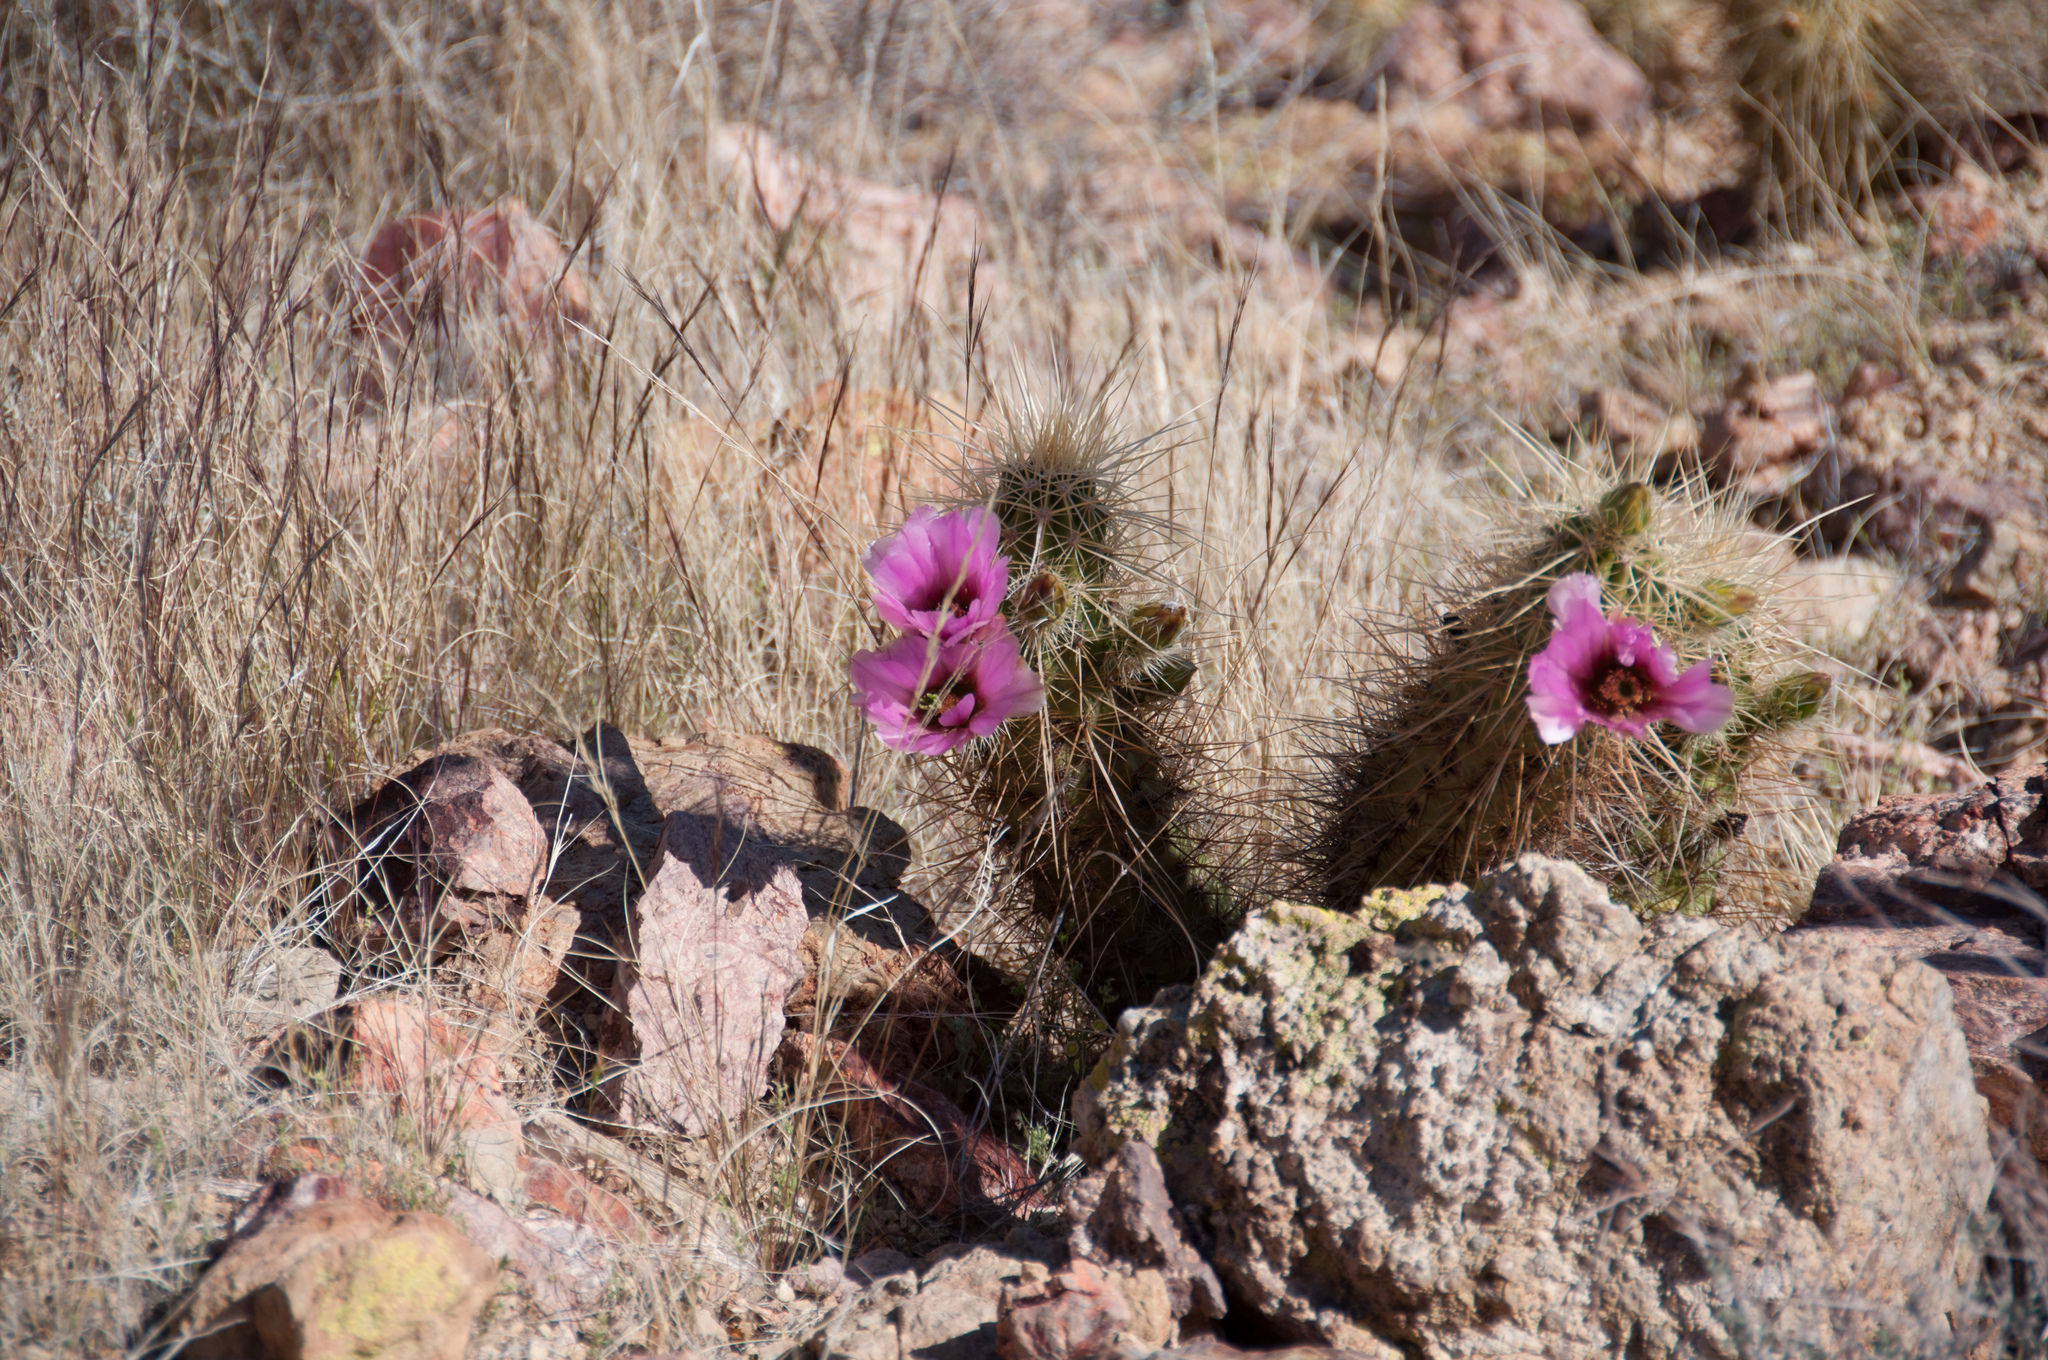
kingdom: Plantae
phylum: Tracheophyta
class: Magnoliopsida
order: Caryophyllales
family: Cactaceae
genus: Echinocereus
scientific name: Echinocereus nicholii
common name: Nichol's hedgehog cactus
